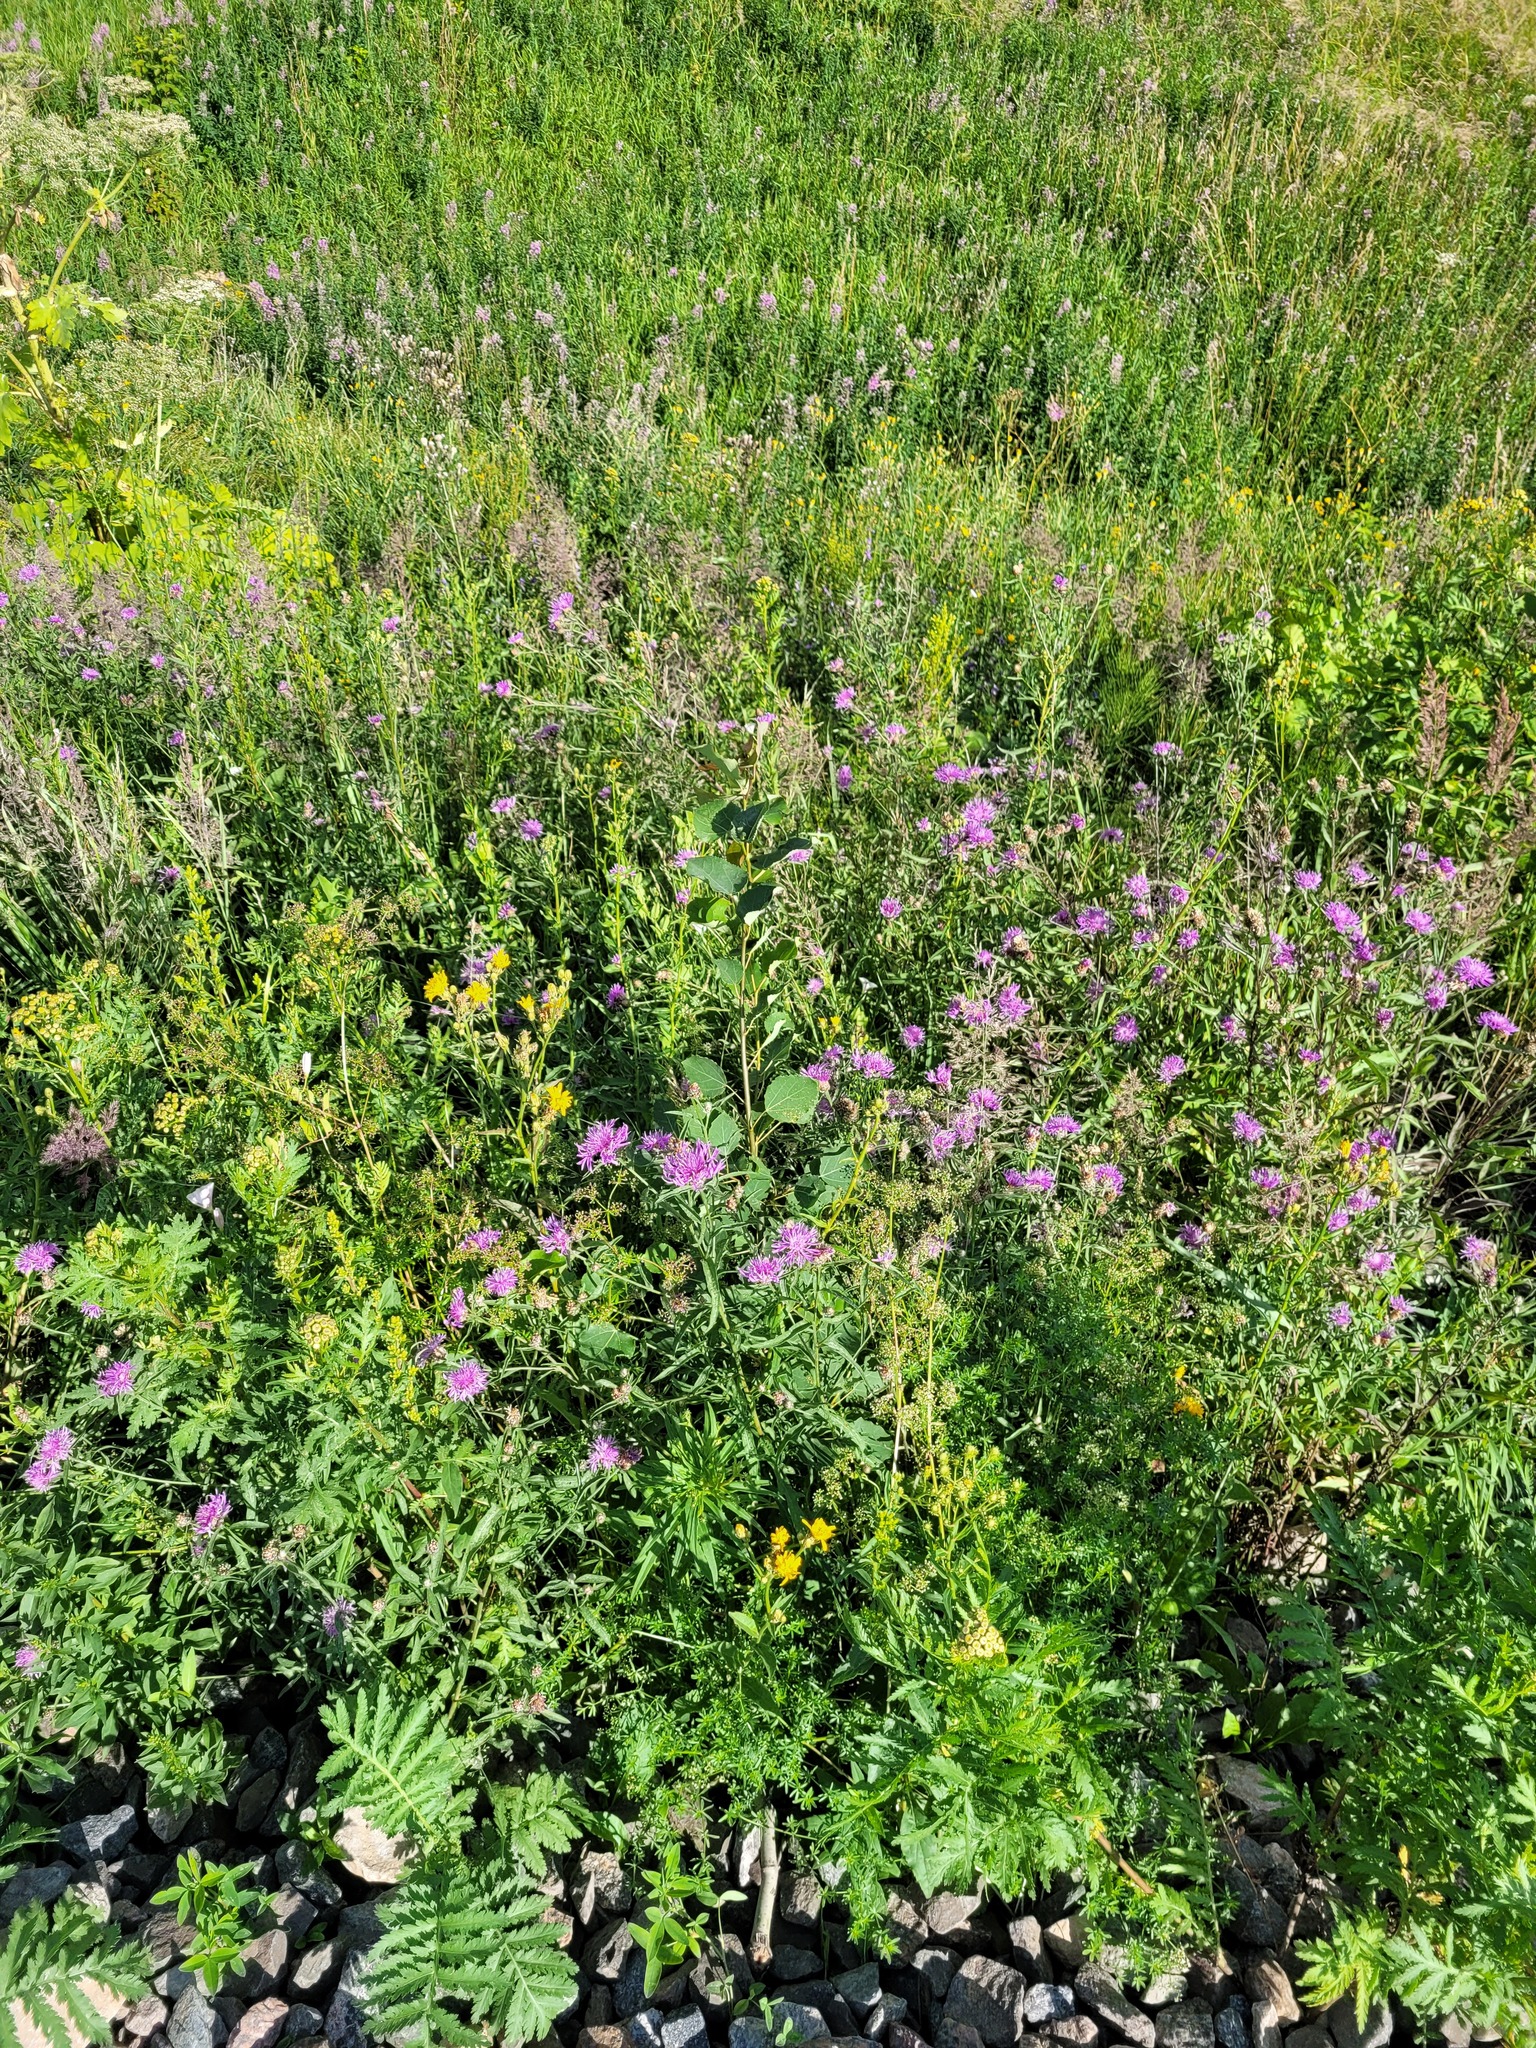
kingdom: Plantae
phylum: Tracheophyta
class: Magnoliopsida
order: Malpighiales
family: Salicaceae
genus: Populus
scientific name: Populus tremula
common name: European aspen
